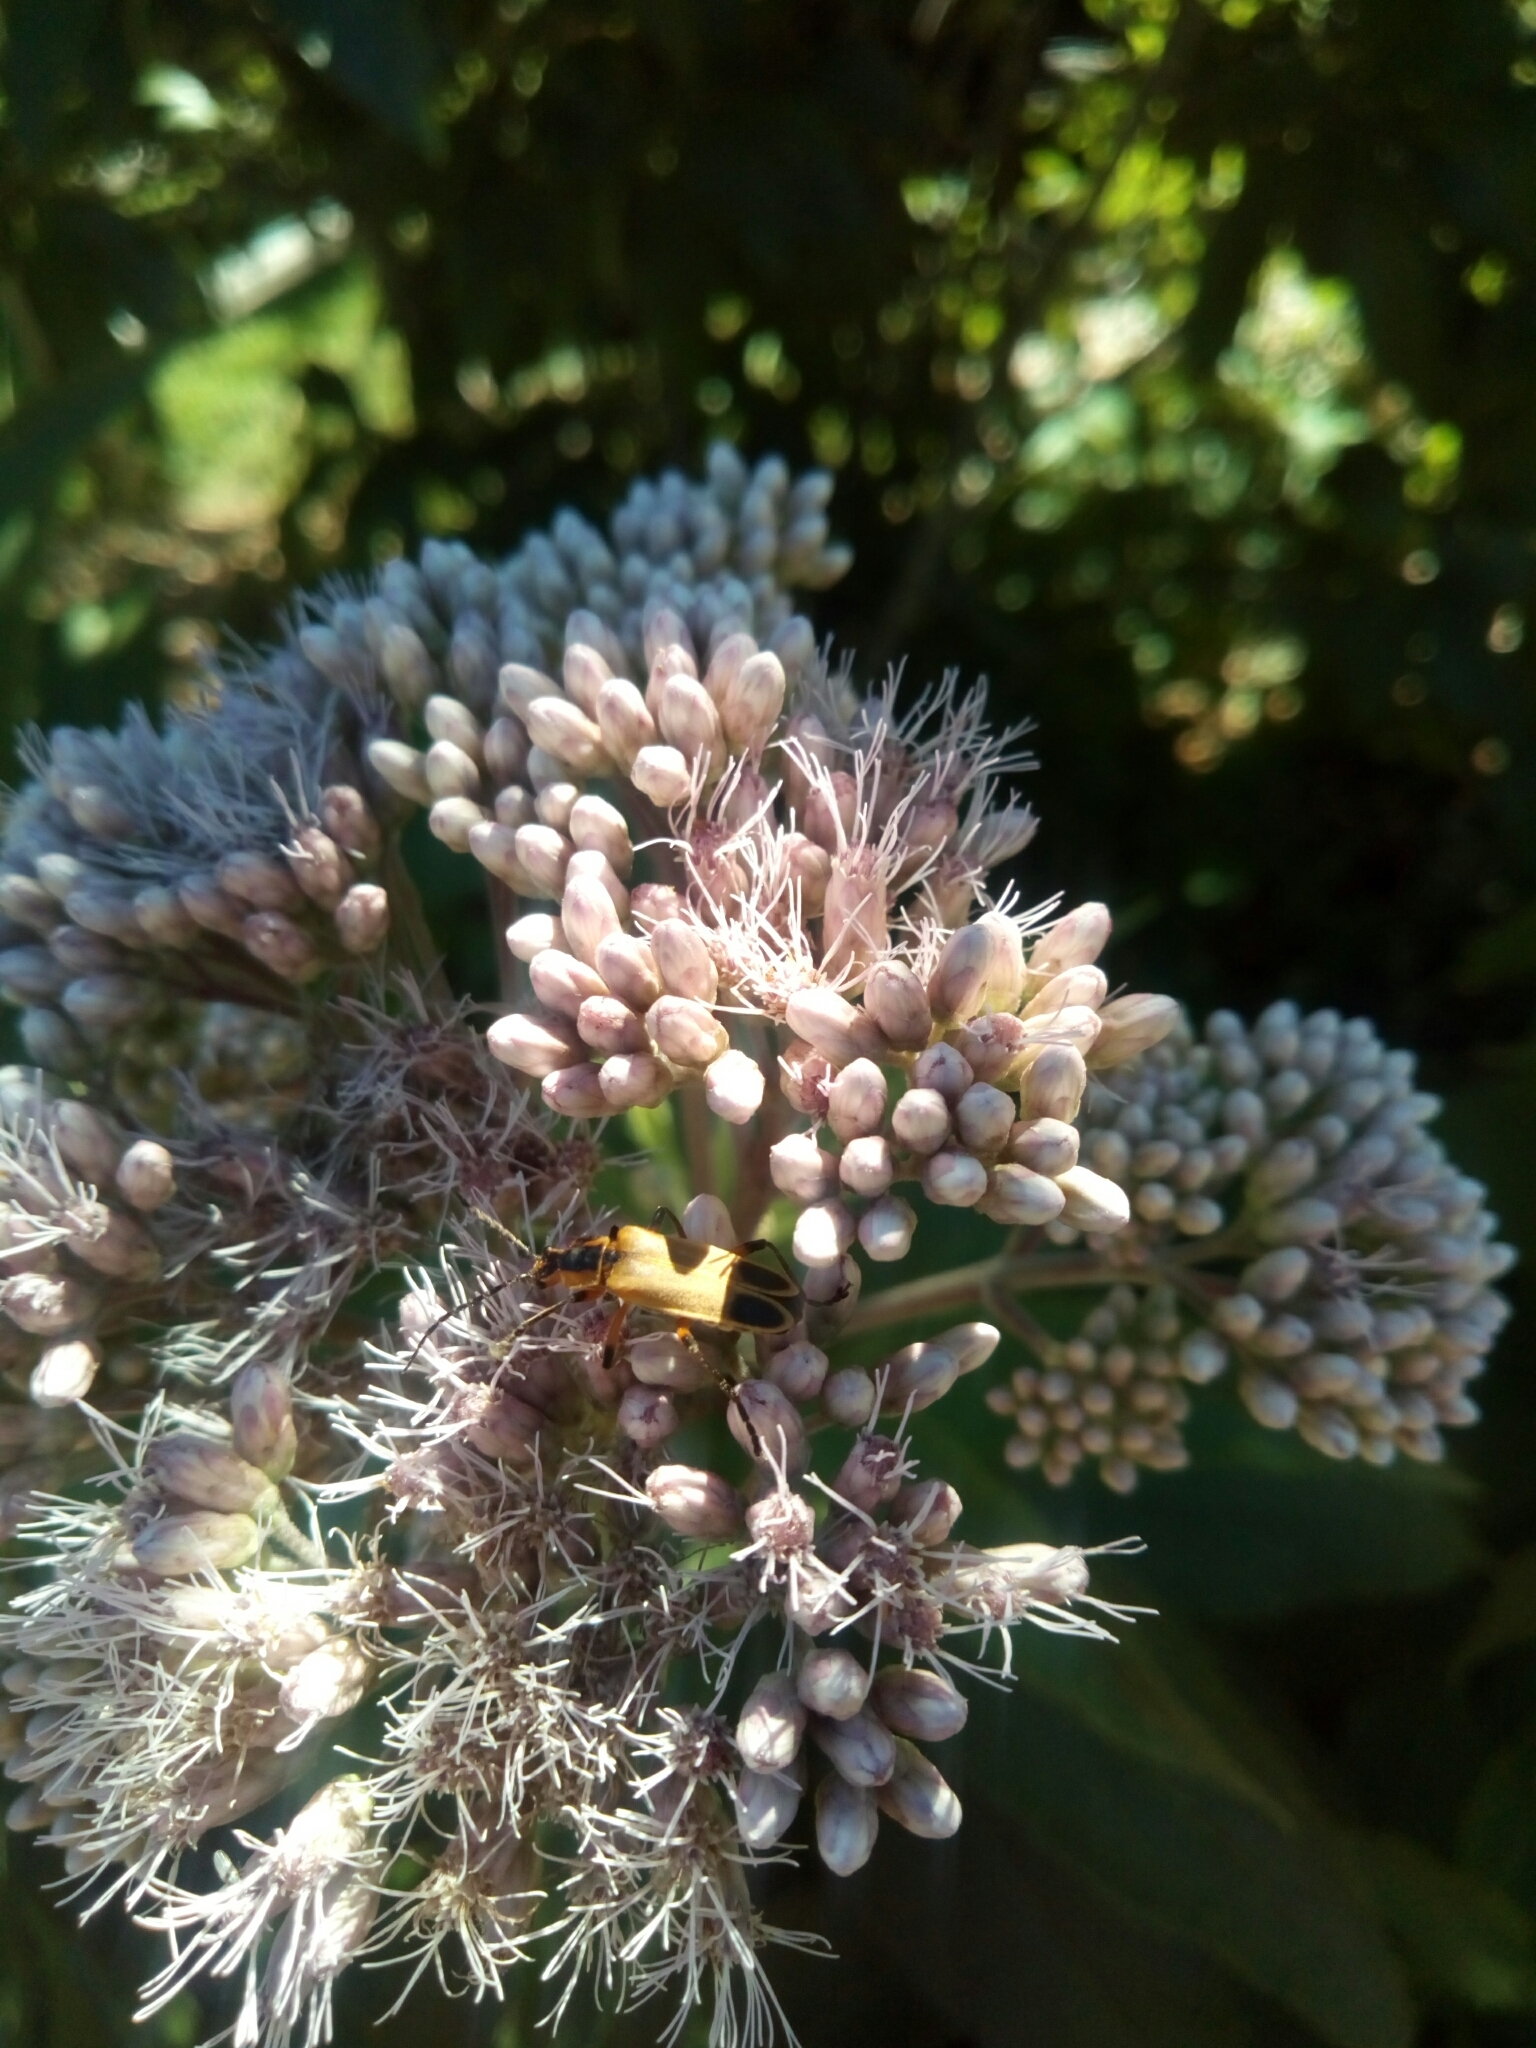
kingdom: Animalia
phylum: Arthropoda
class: Insecta
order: Coleoptera
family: Cantharidae
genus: Chauliognathus
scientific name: Chauliognathus marginatus
